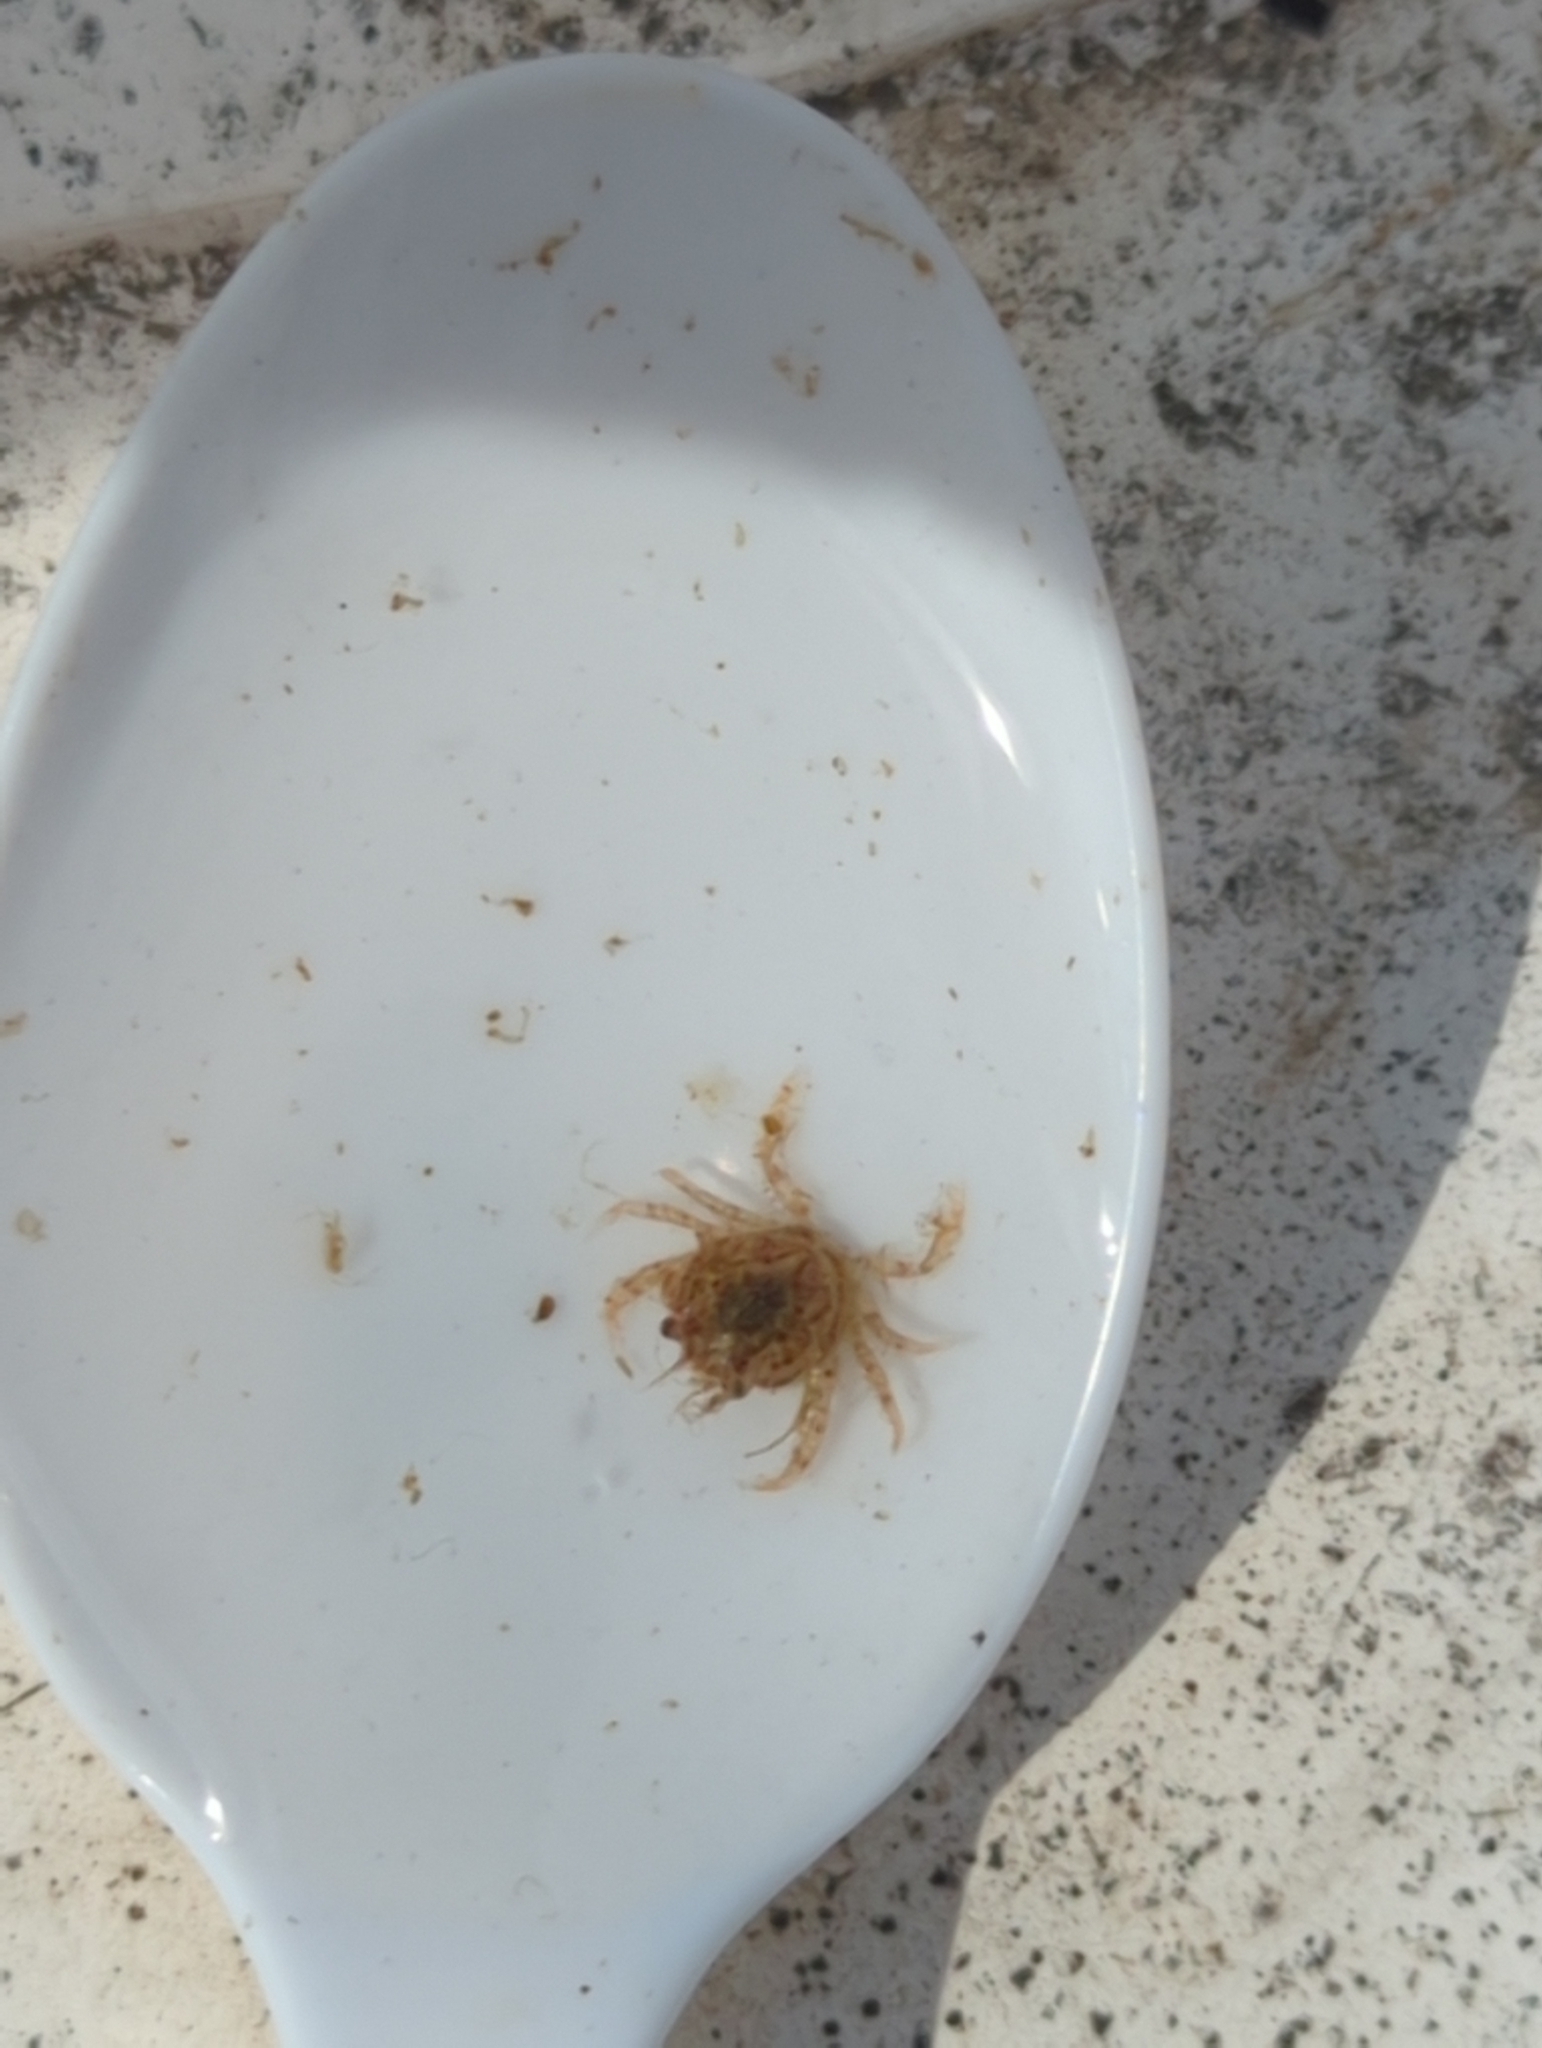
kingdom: Animalia
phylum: Arthropoda
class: Malacostraca
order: Decapoda
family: Cancridae
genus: Metacarcinus
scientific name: Metacarcinus magister
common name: Californian crab
